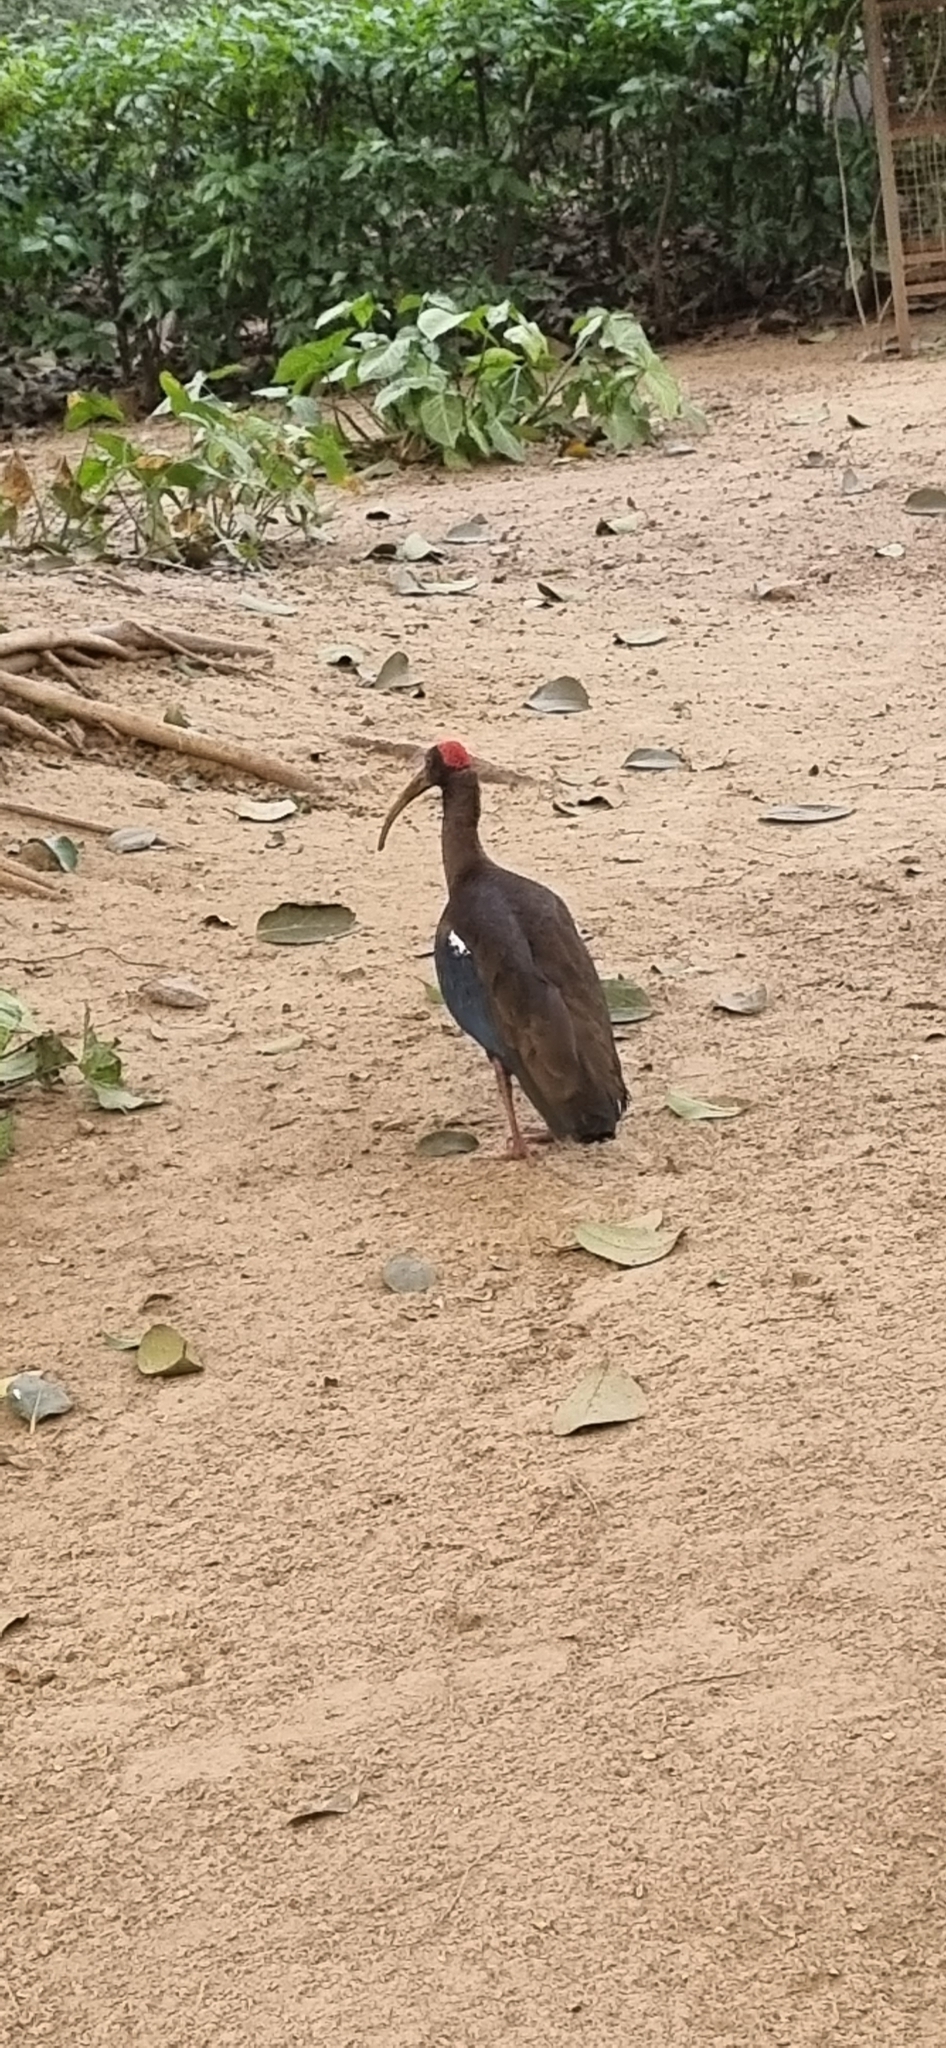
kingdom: Animalia
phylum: Chordata
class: Aves
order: Pelecaniformes
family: Threskiornithidae
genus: Pseudibis
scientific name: Pseudibis papillosa
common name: Red-naped ibis
